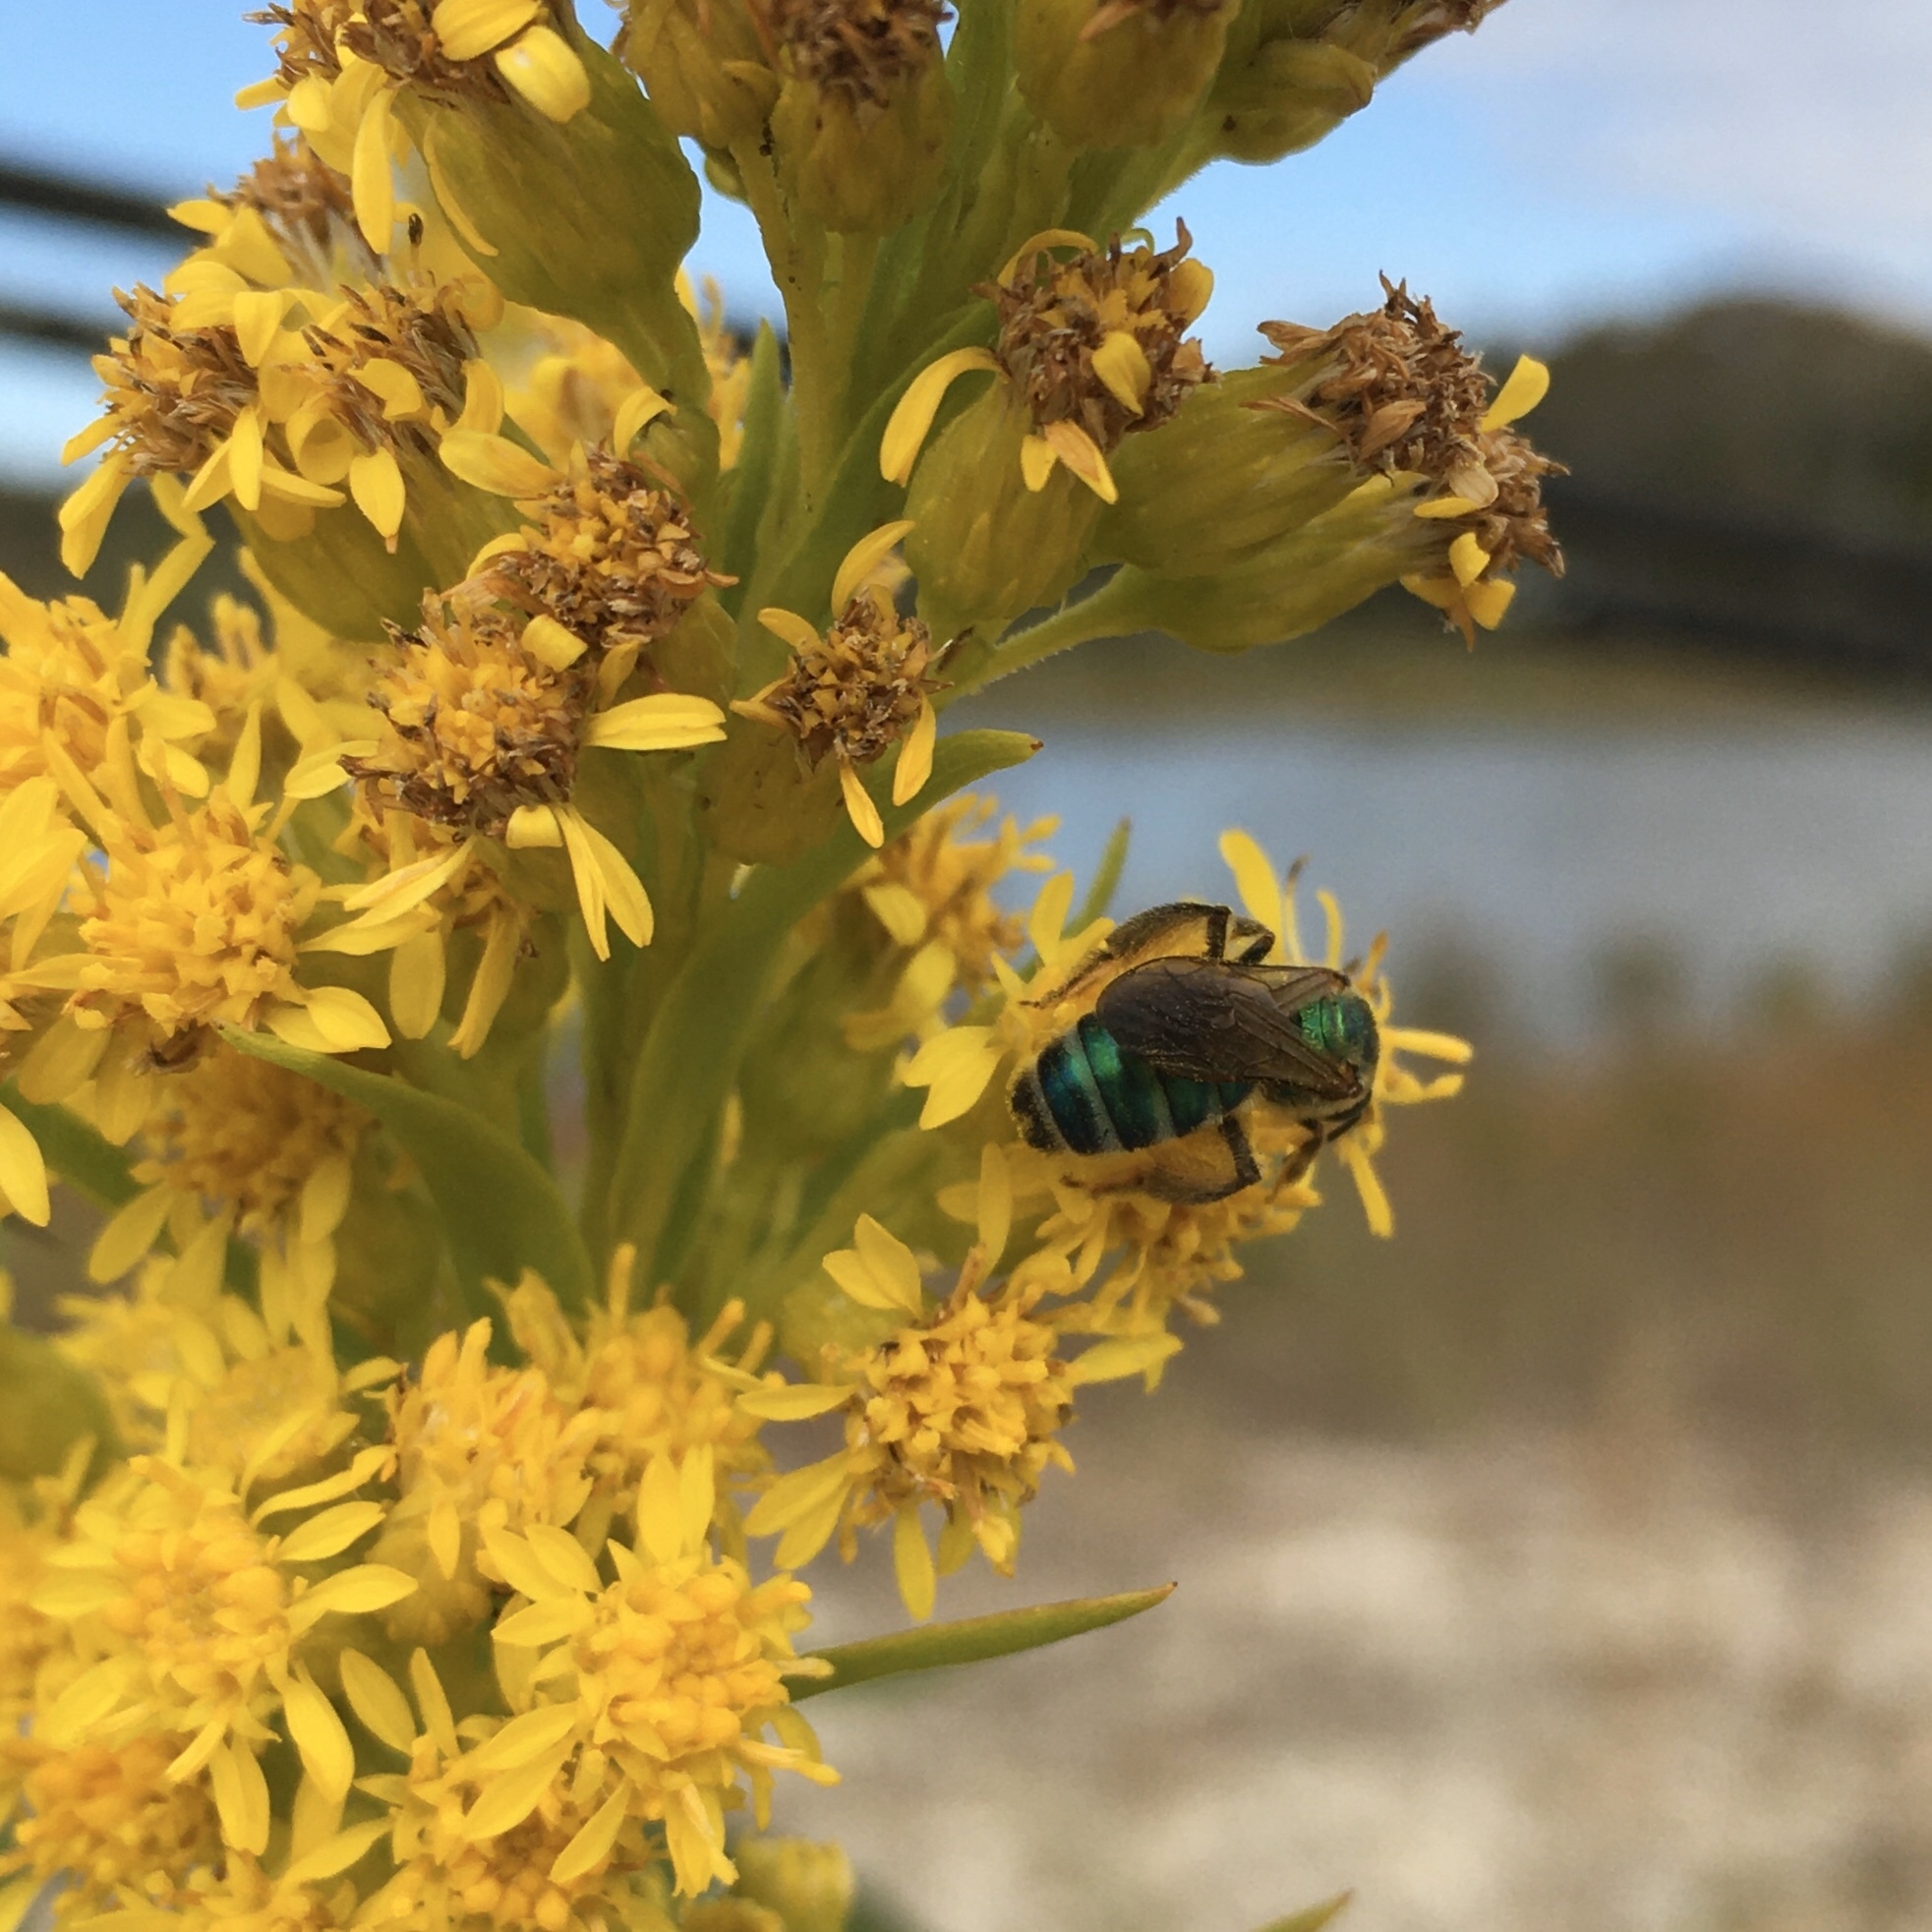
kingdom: Animalia
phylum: Arthropoda
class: Insecta
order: Hymenoptera
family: Halictidae
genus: Agapostemon
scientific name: Agapostemon splendens
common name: Brown-winged striped sweat bee
